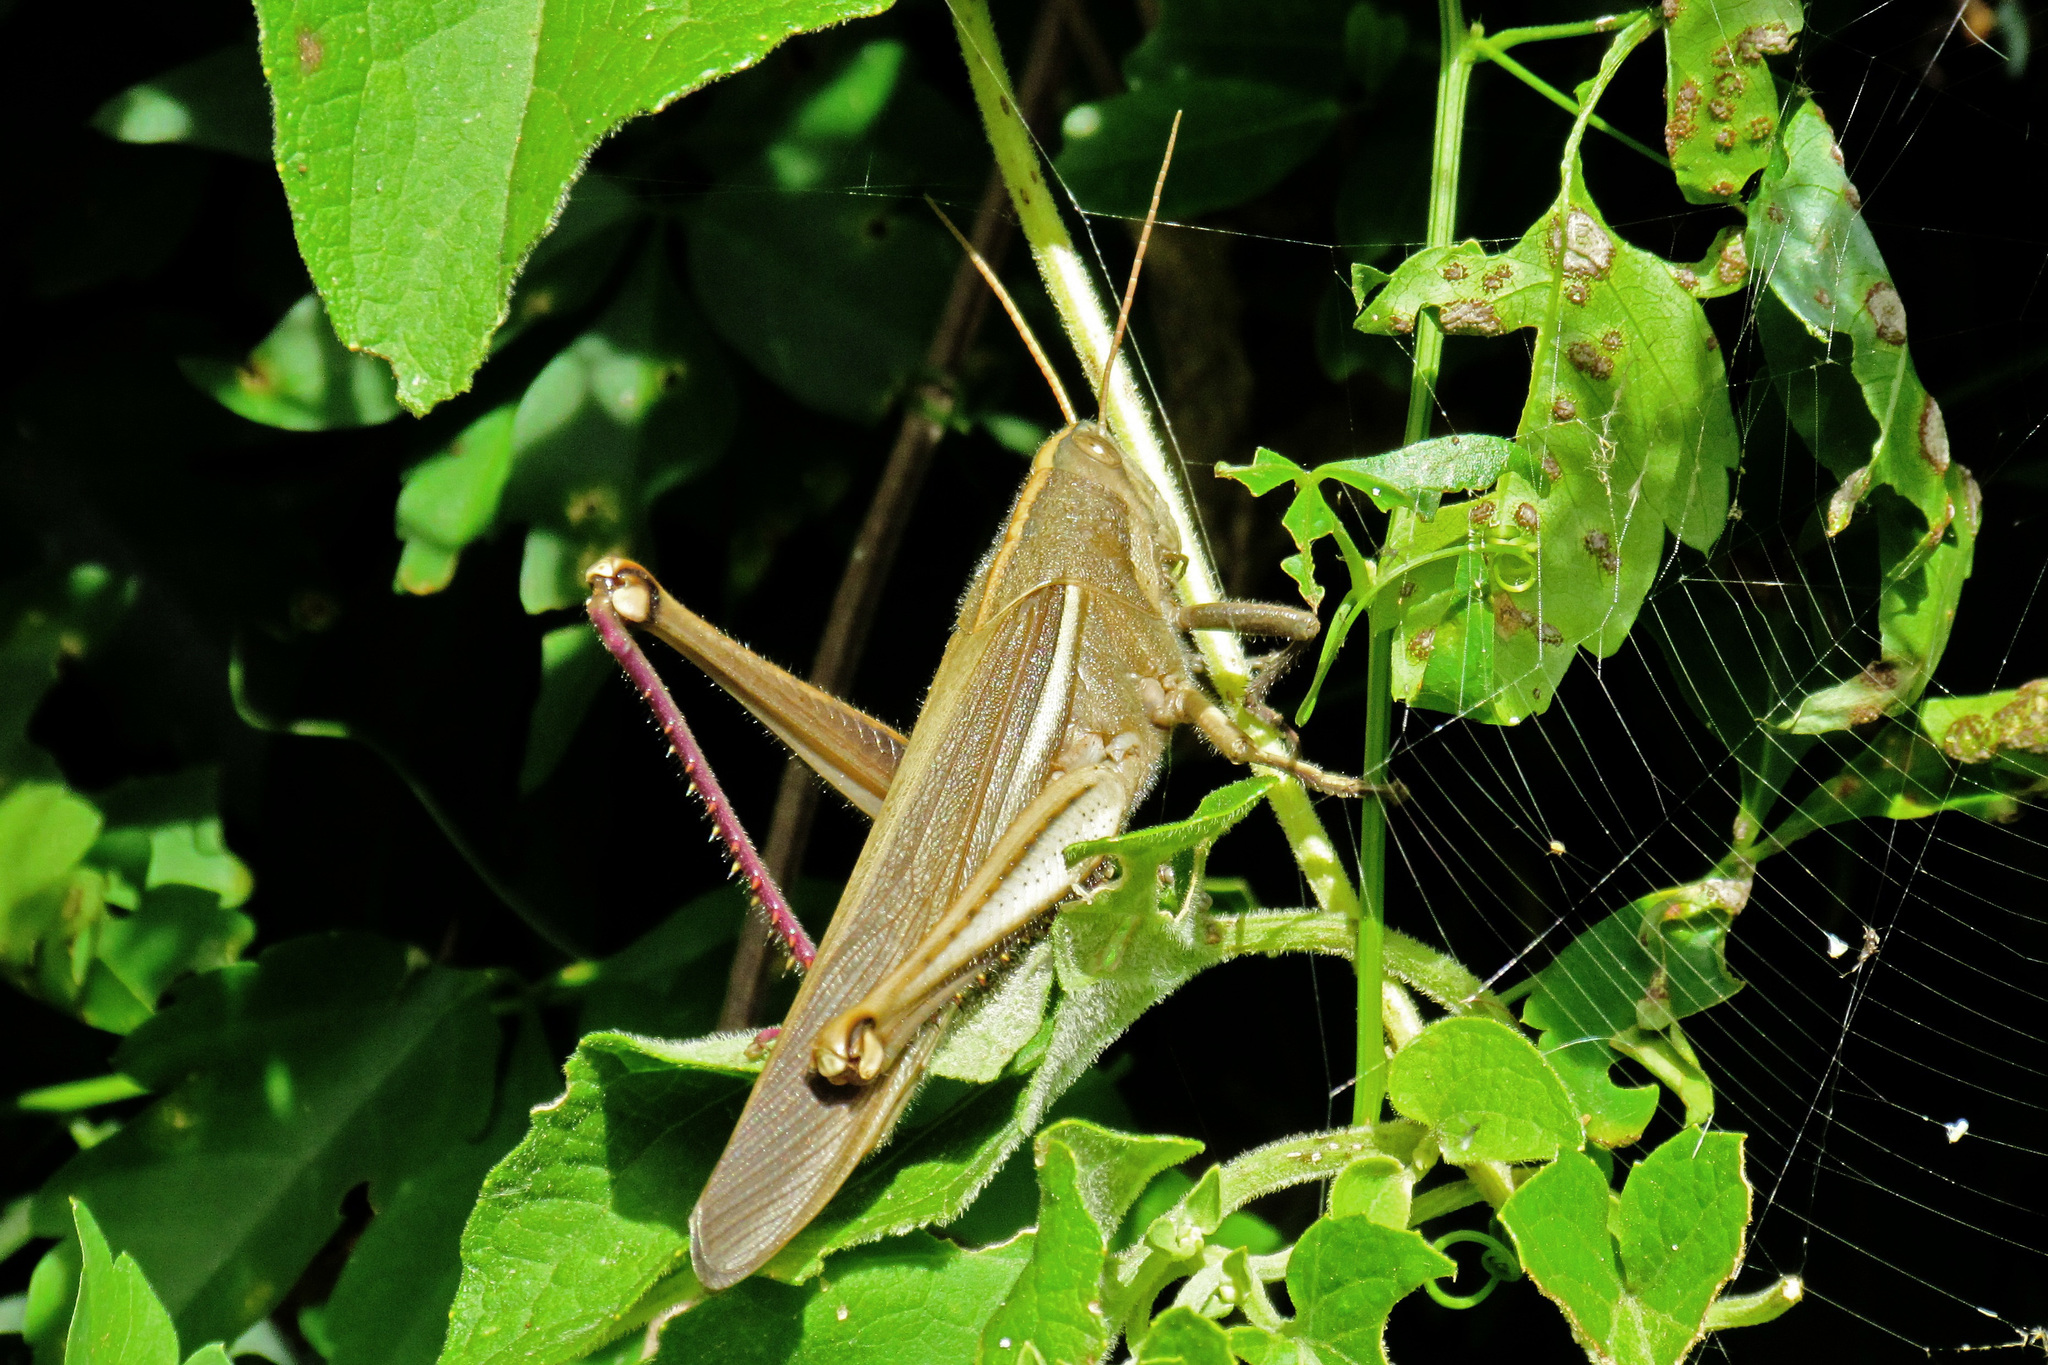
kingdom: Animalia
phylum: Arthropoda
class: Insecta
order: Orthoptera
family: Acrididae
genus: Schistocerca
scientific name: Schistocerca flavofasciata
